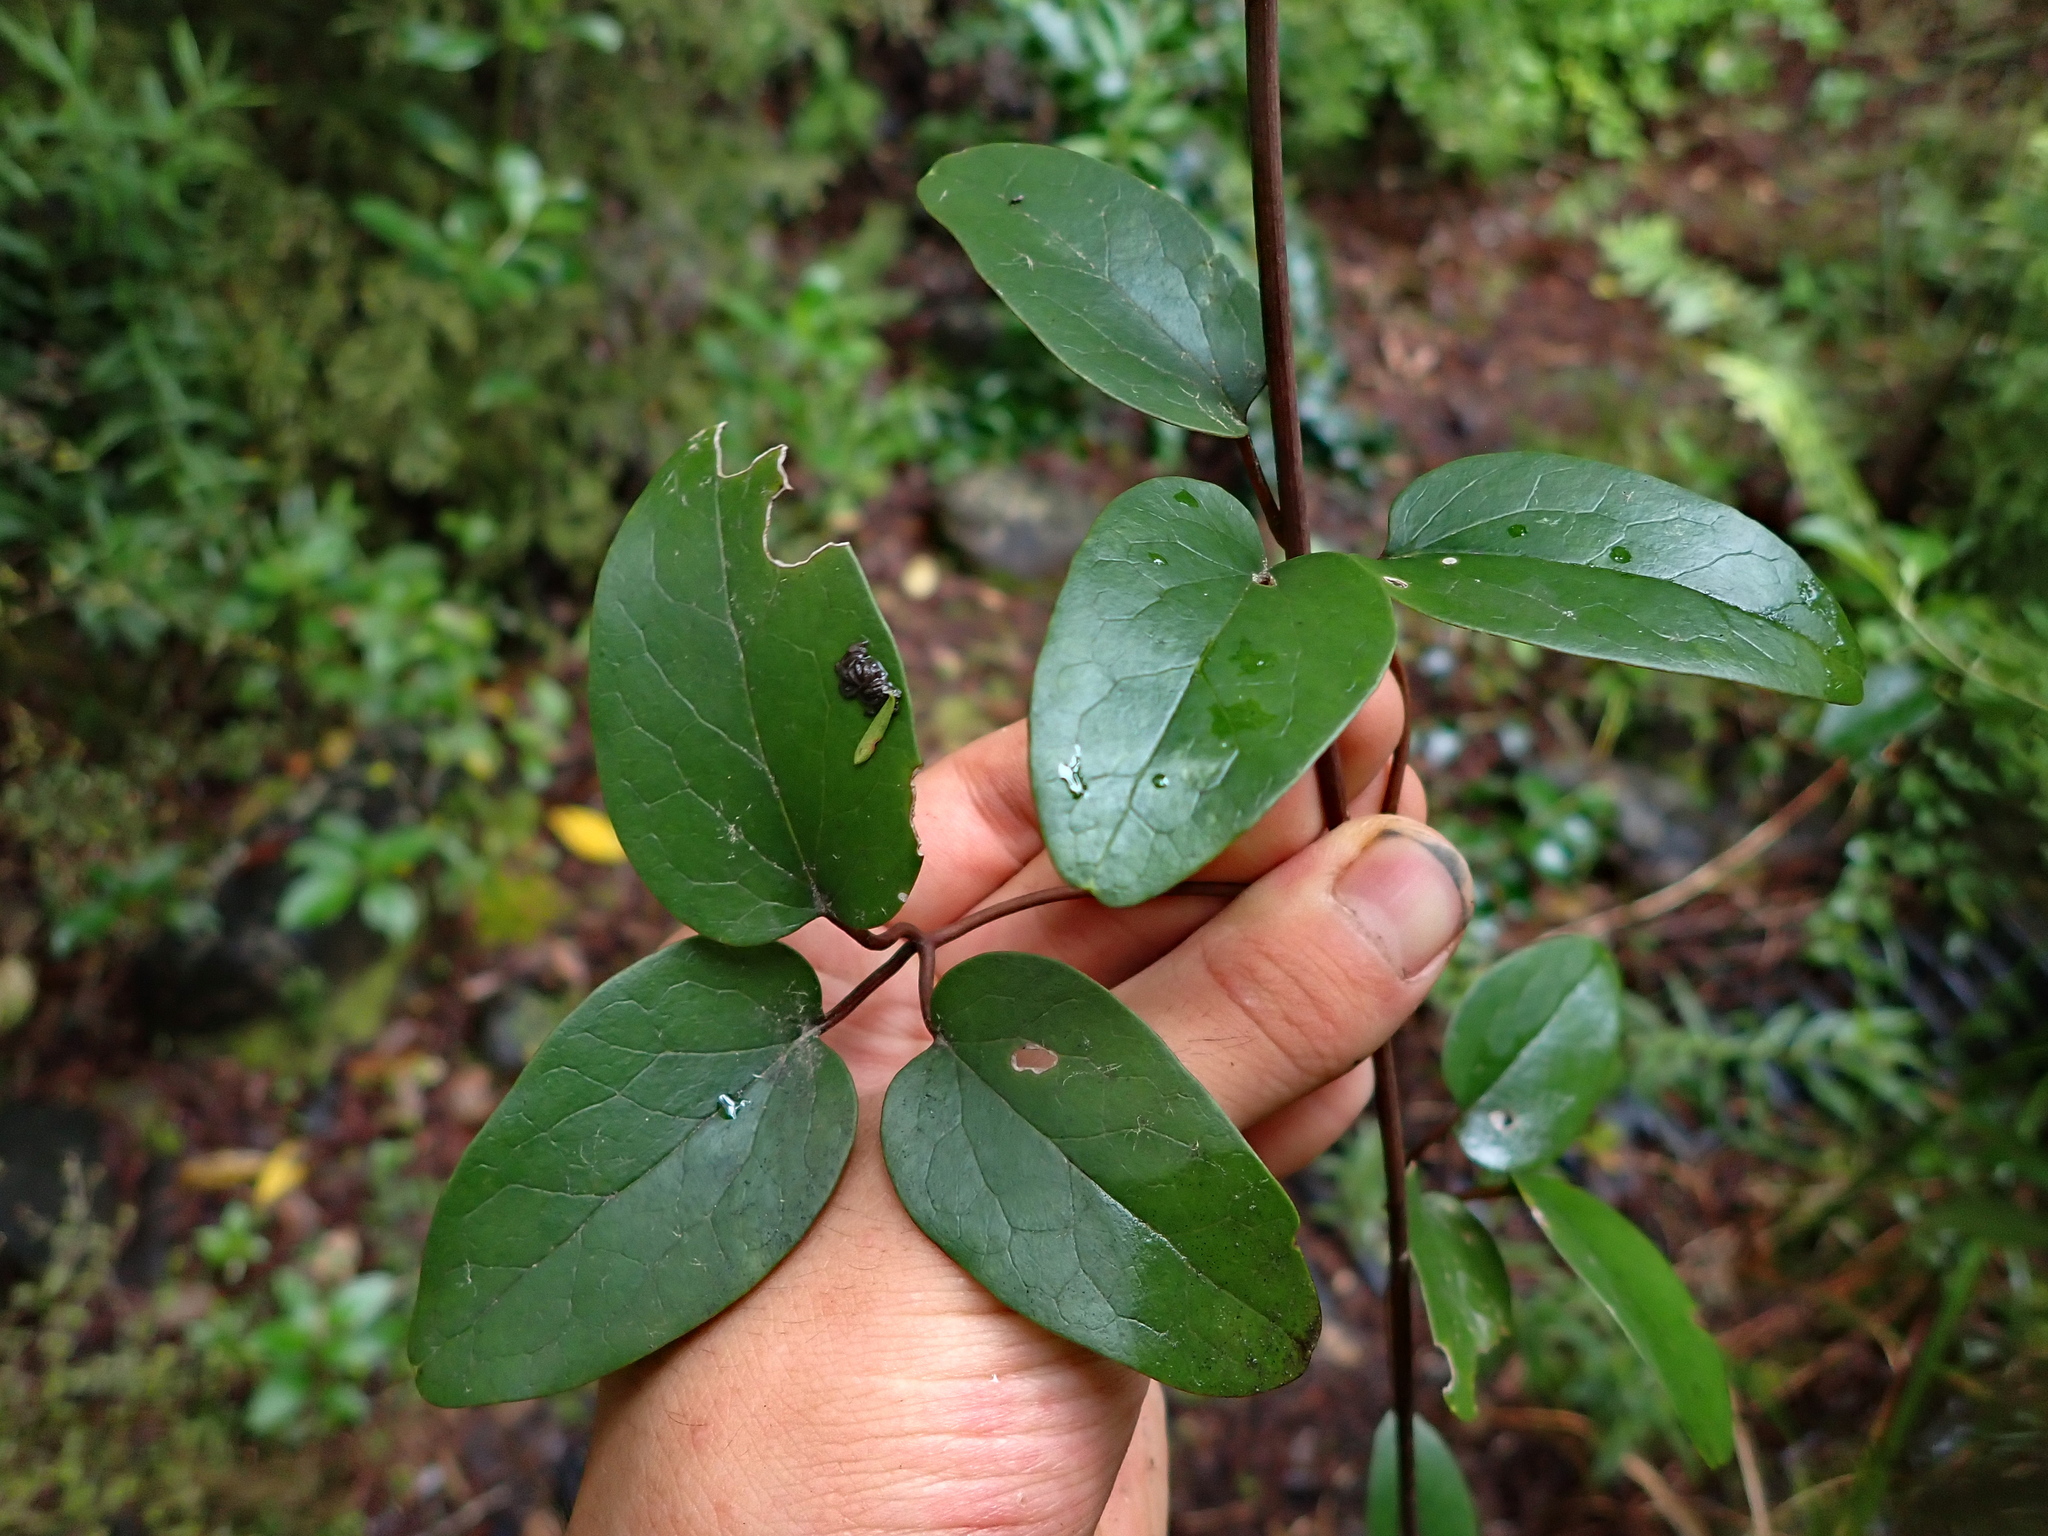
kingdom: Plantae
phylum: Tracheophyta
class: Magnoliopsida
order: Ranunculales
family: Ranunculaceae
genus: Clematis
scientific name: Clematis paniculata
